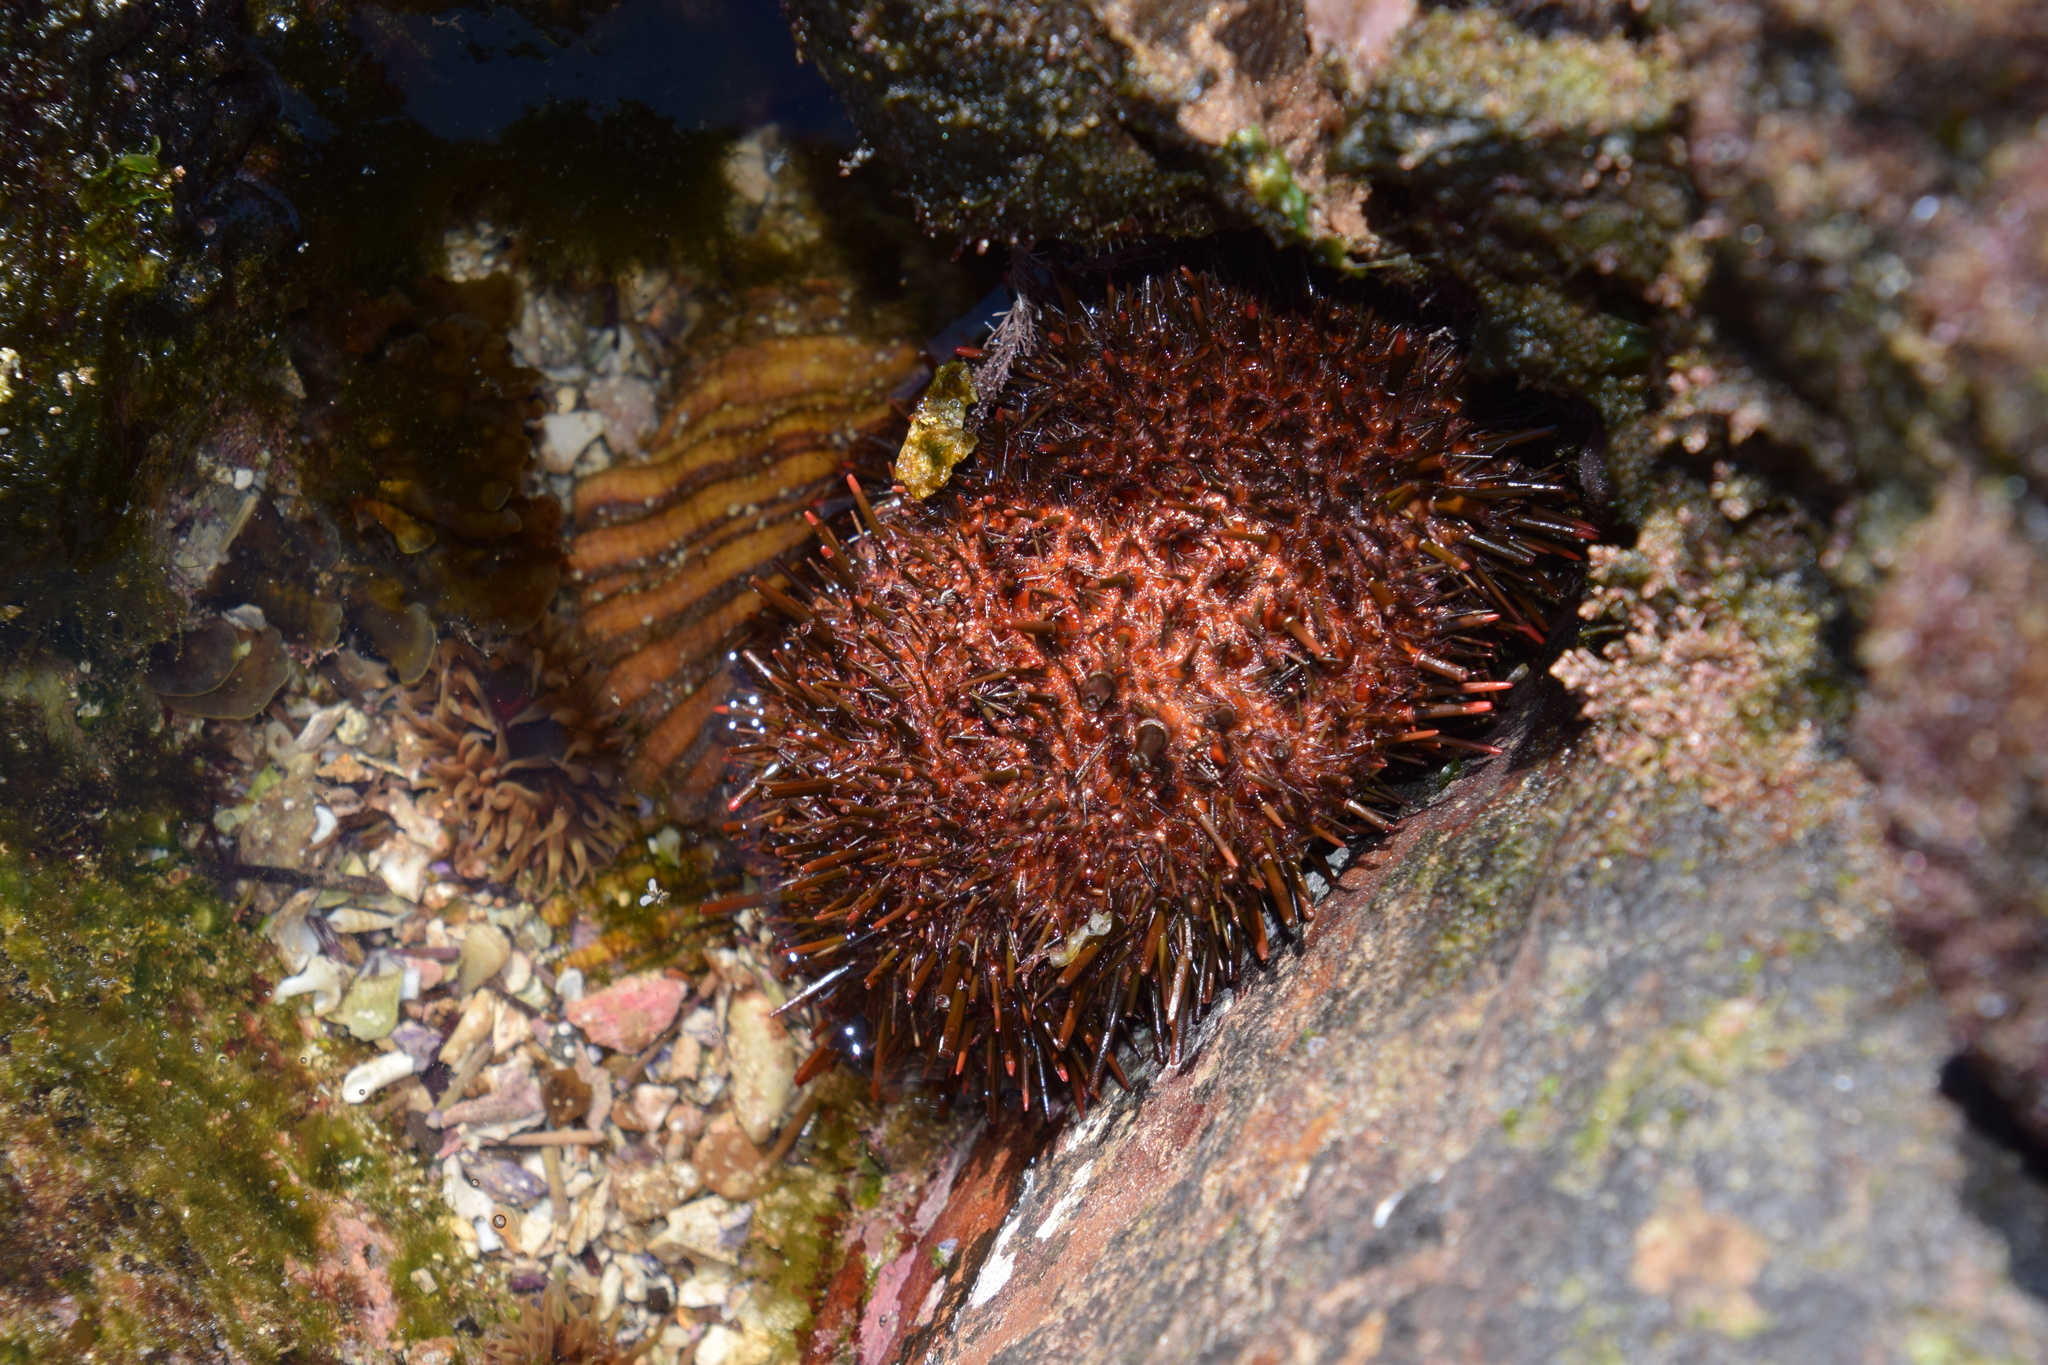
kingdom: Animalia
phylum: Echinodermata
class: Echinoidea
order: Camarodonta
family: Echinometridae
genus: Heliocidaris
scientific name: Heliocidaris tuberculata
